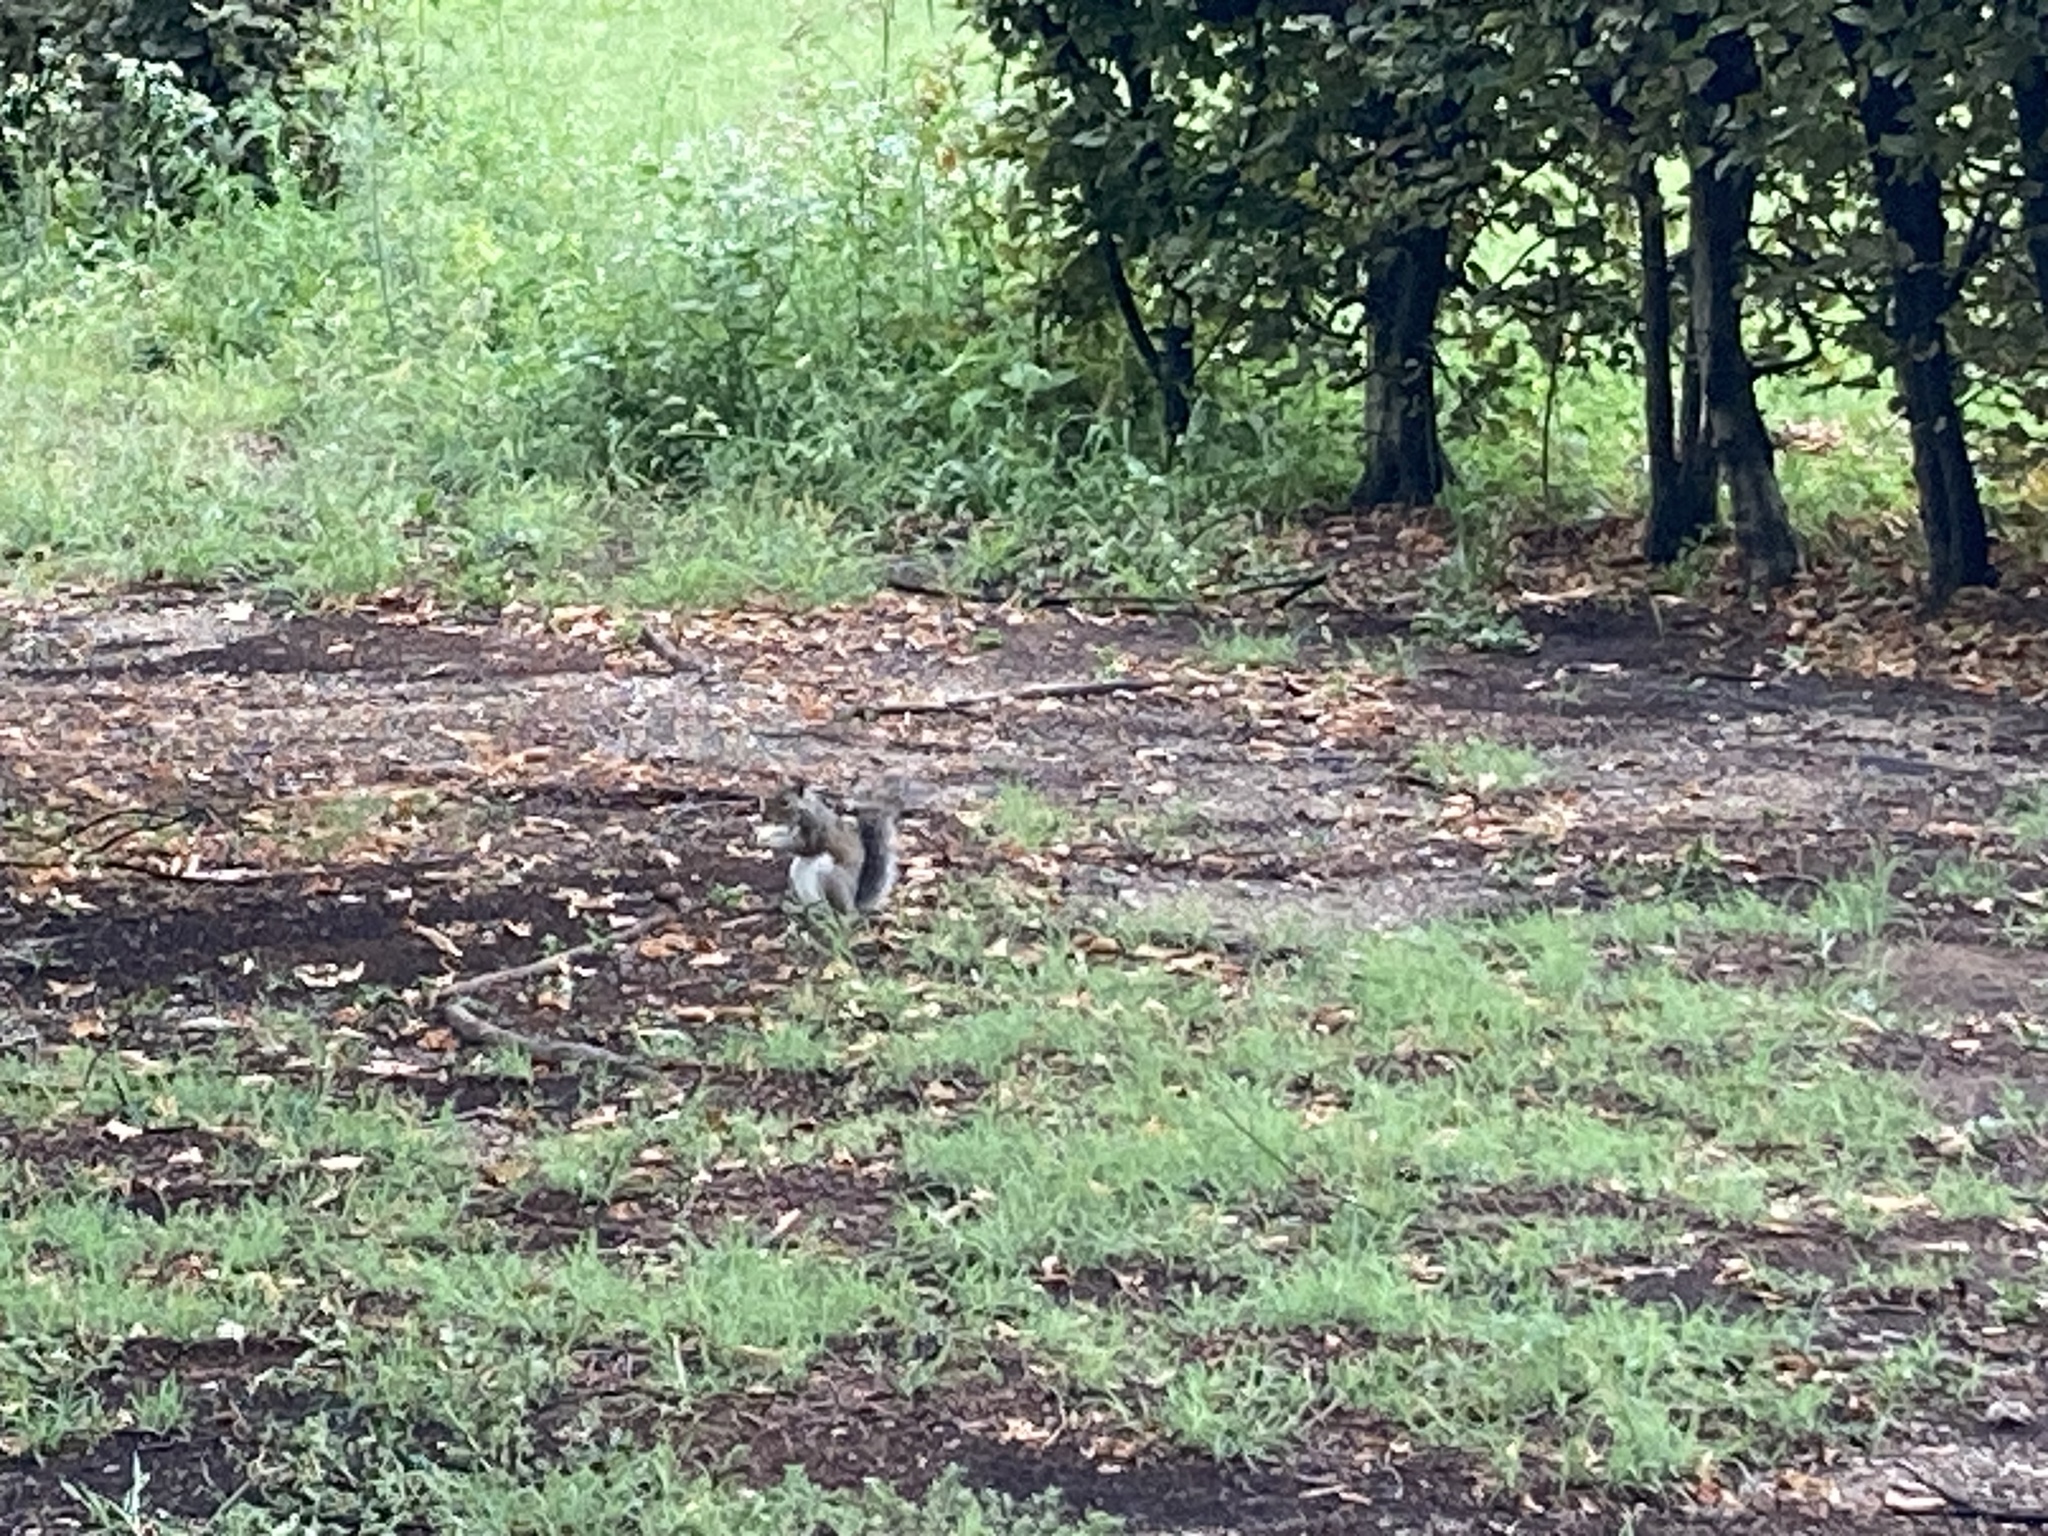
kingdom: Animalia
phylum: Chordata
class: Mammalia
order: Rodentia
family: Sciuridae
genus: Sciurus
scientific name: Sciurus carolinensis
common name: Eastern gray squirrel
